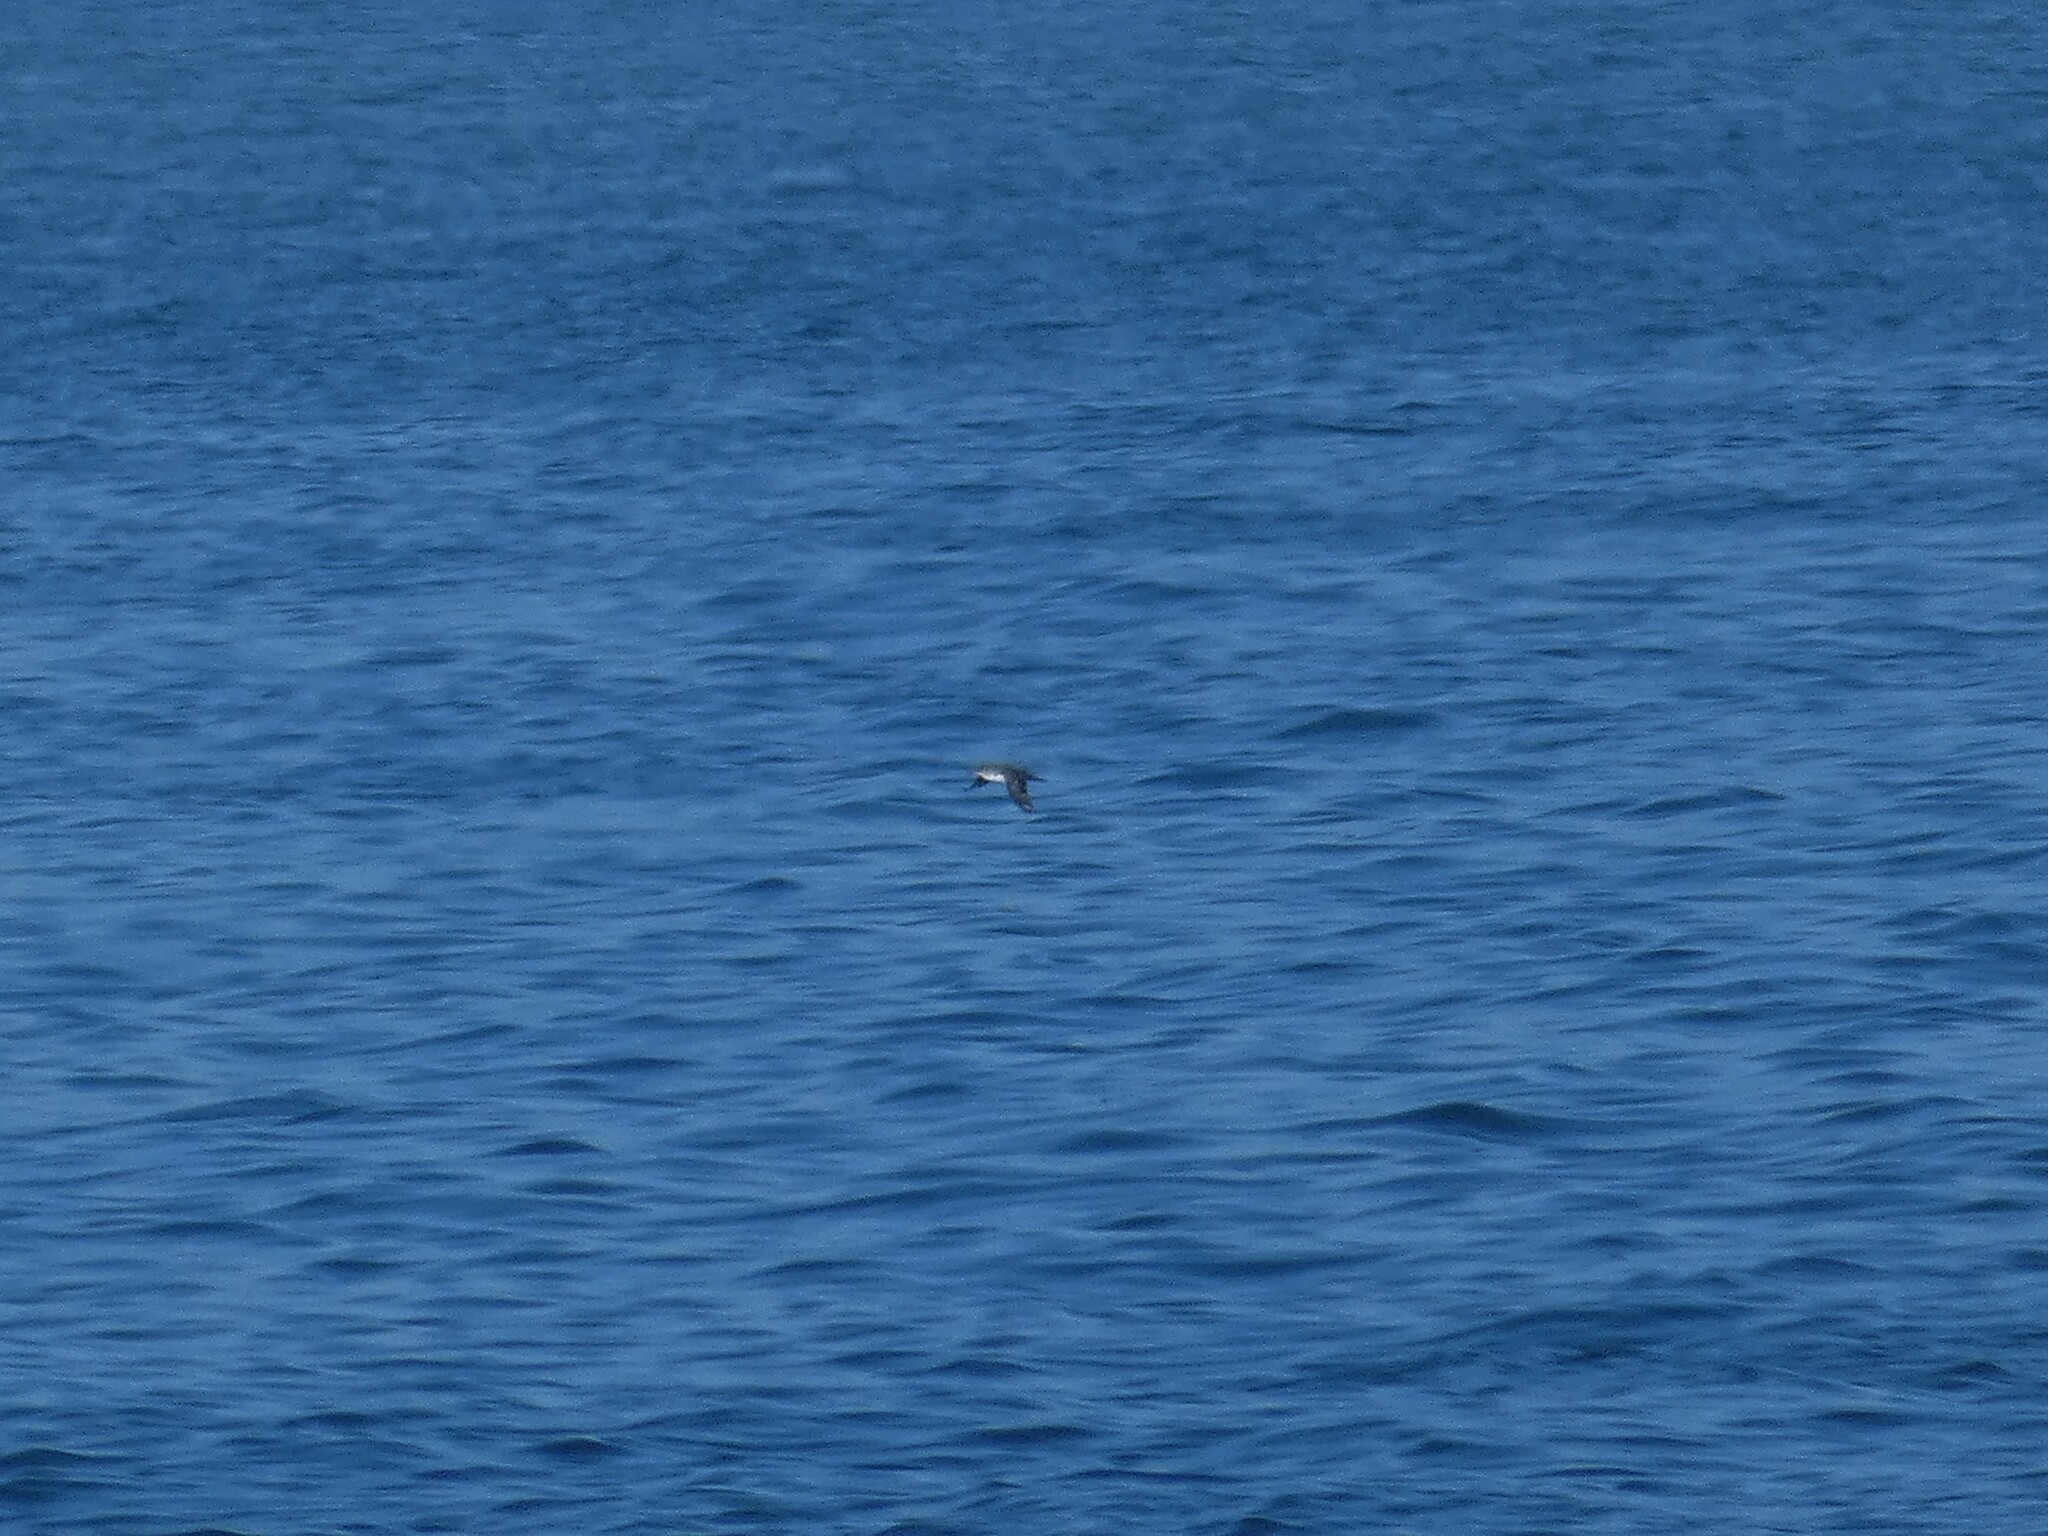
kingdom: Animalia
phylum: Chordata
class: Aves
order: Procellariiformes
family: Procellariidae
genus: Puffinus
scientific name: Puffinus mauretanicus
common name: Balearic shearwater
